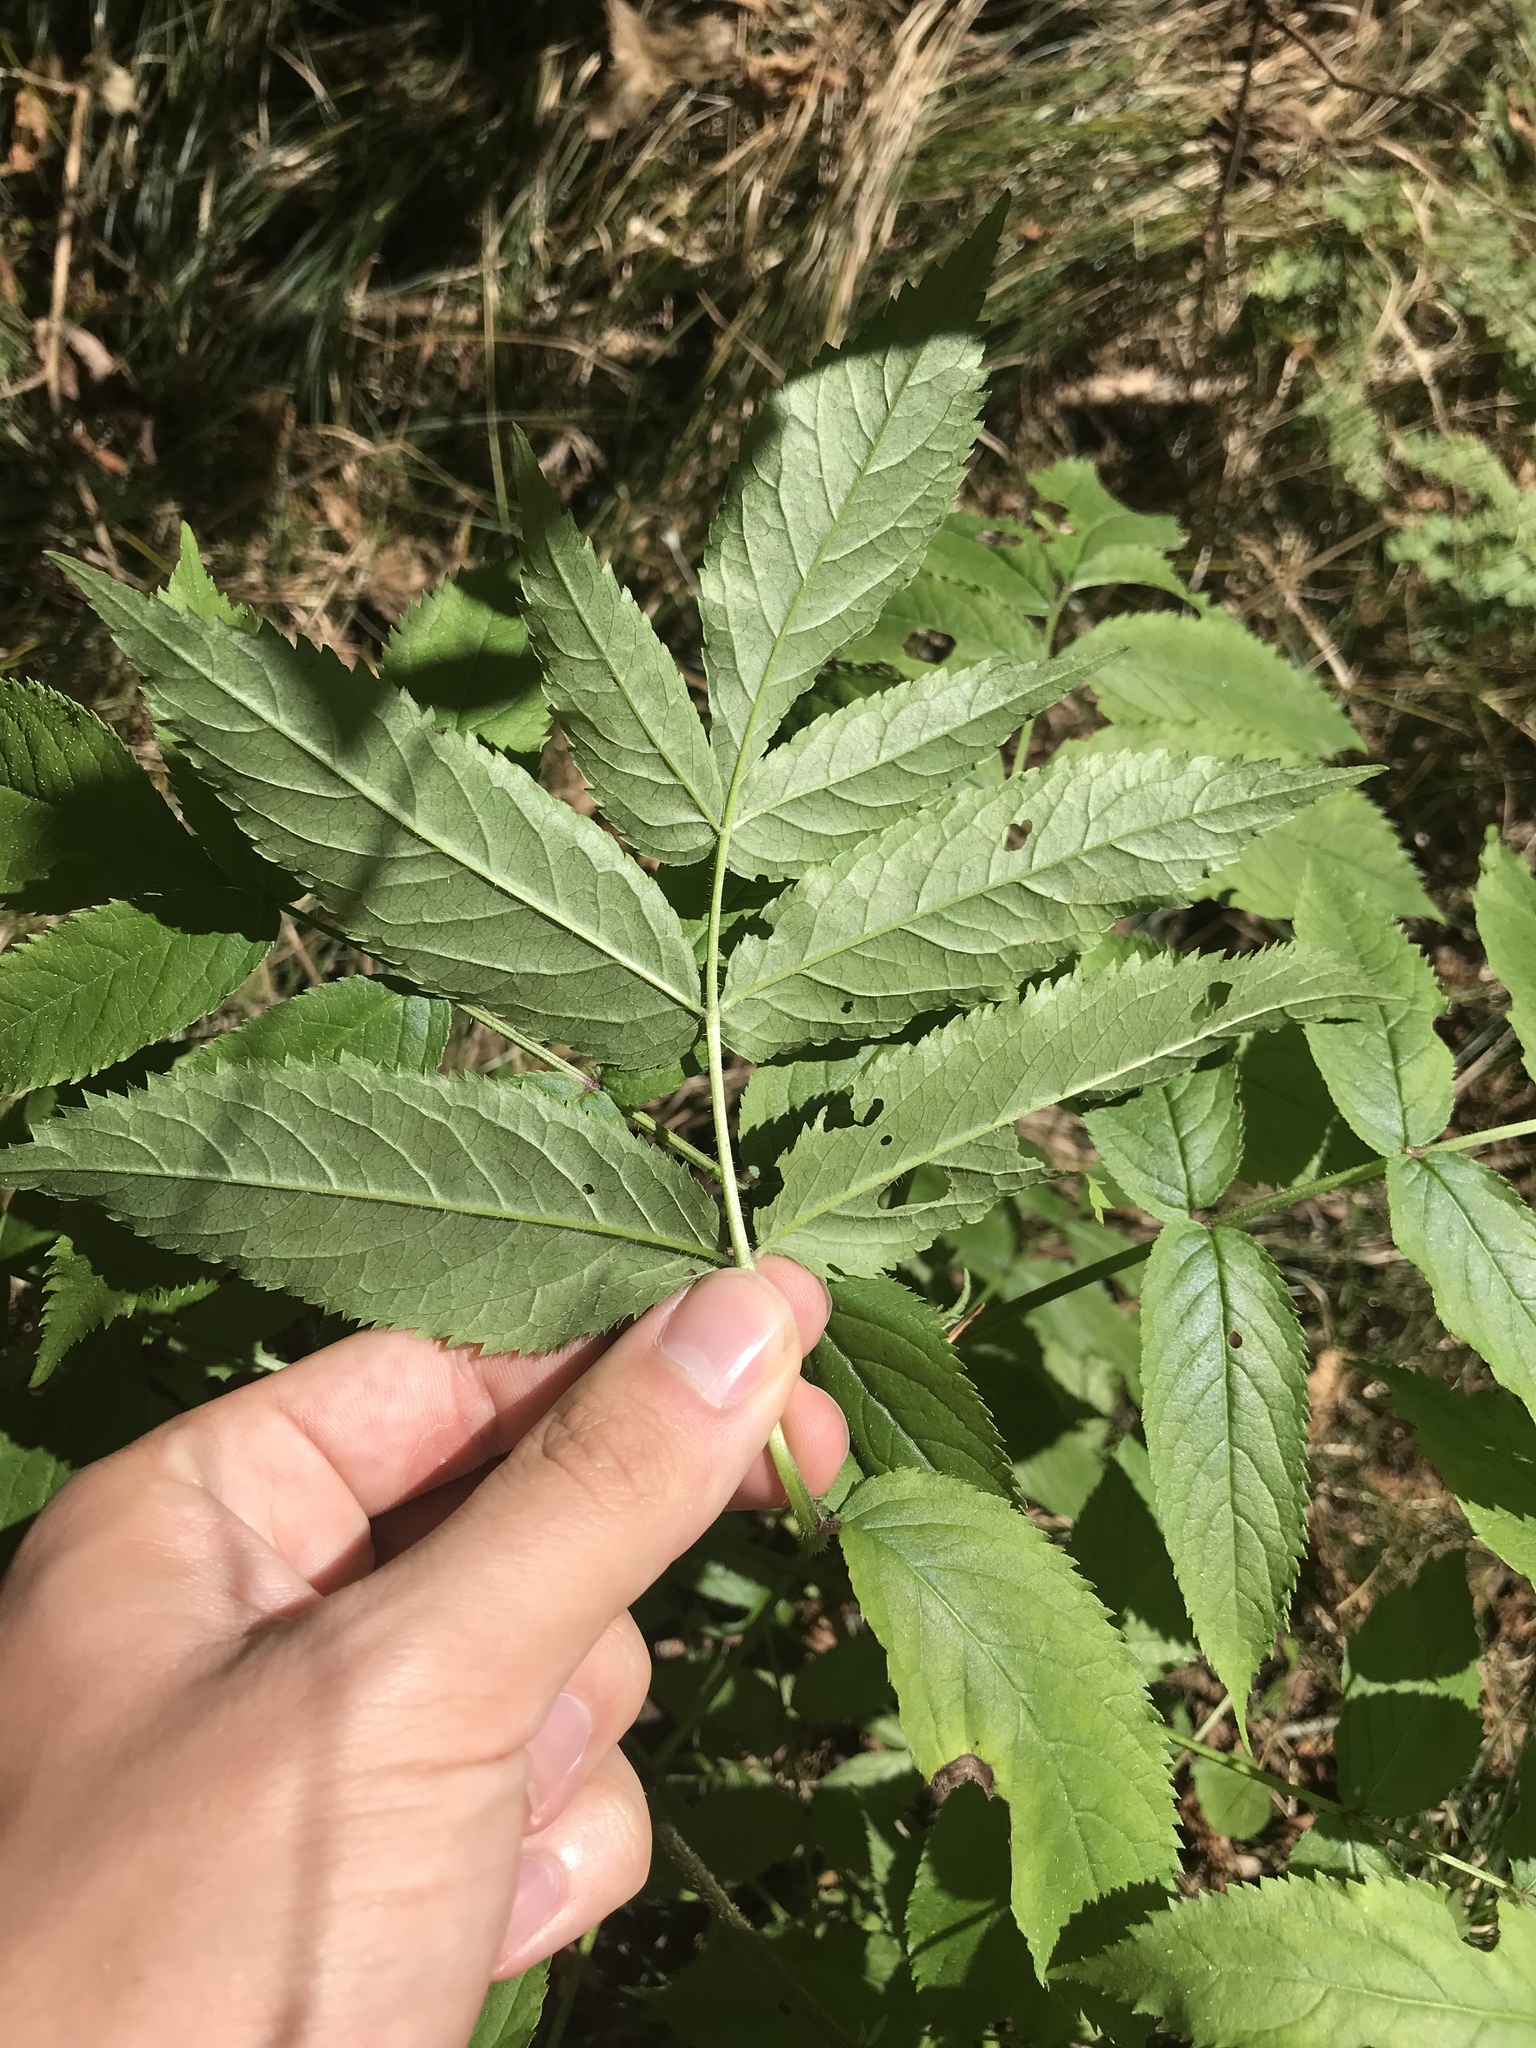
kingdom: Plantae
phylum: Tracheophyta
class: Magnoliopsida
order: Rosales
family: Rosaceae
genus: Sorbus
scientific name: Sorbus americana
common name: American mountain-ash
